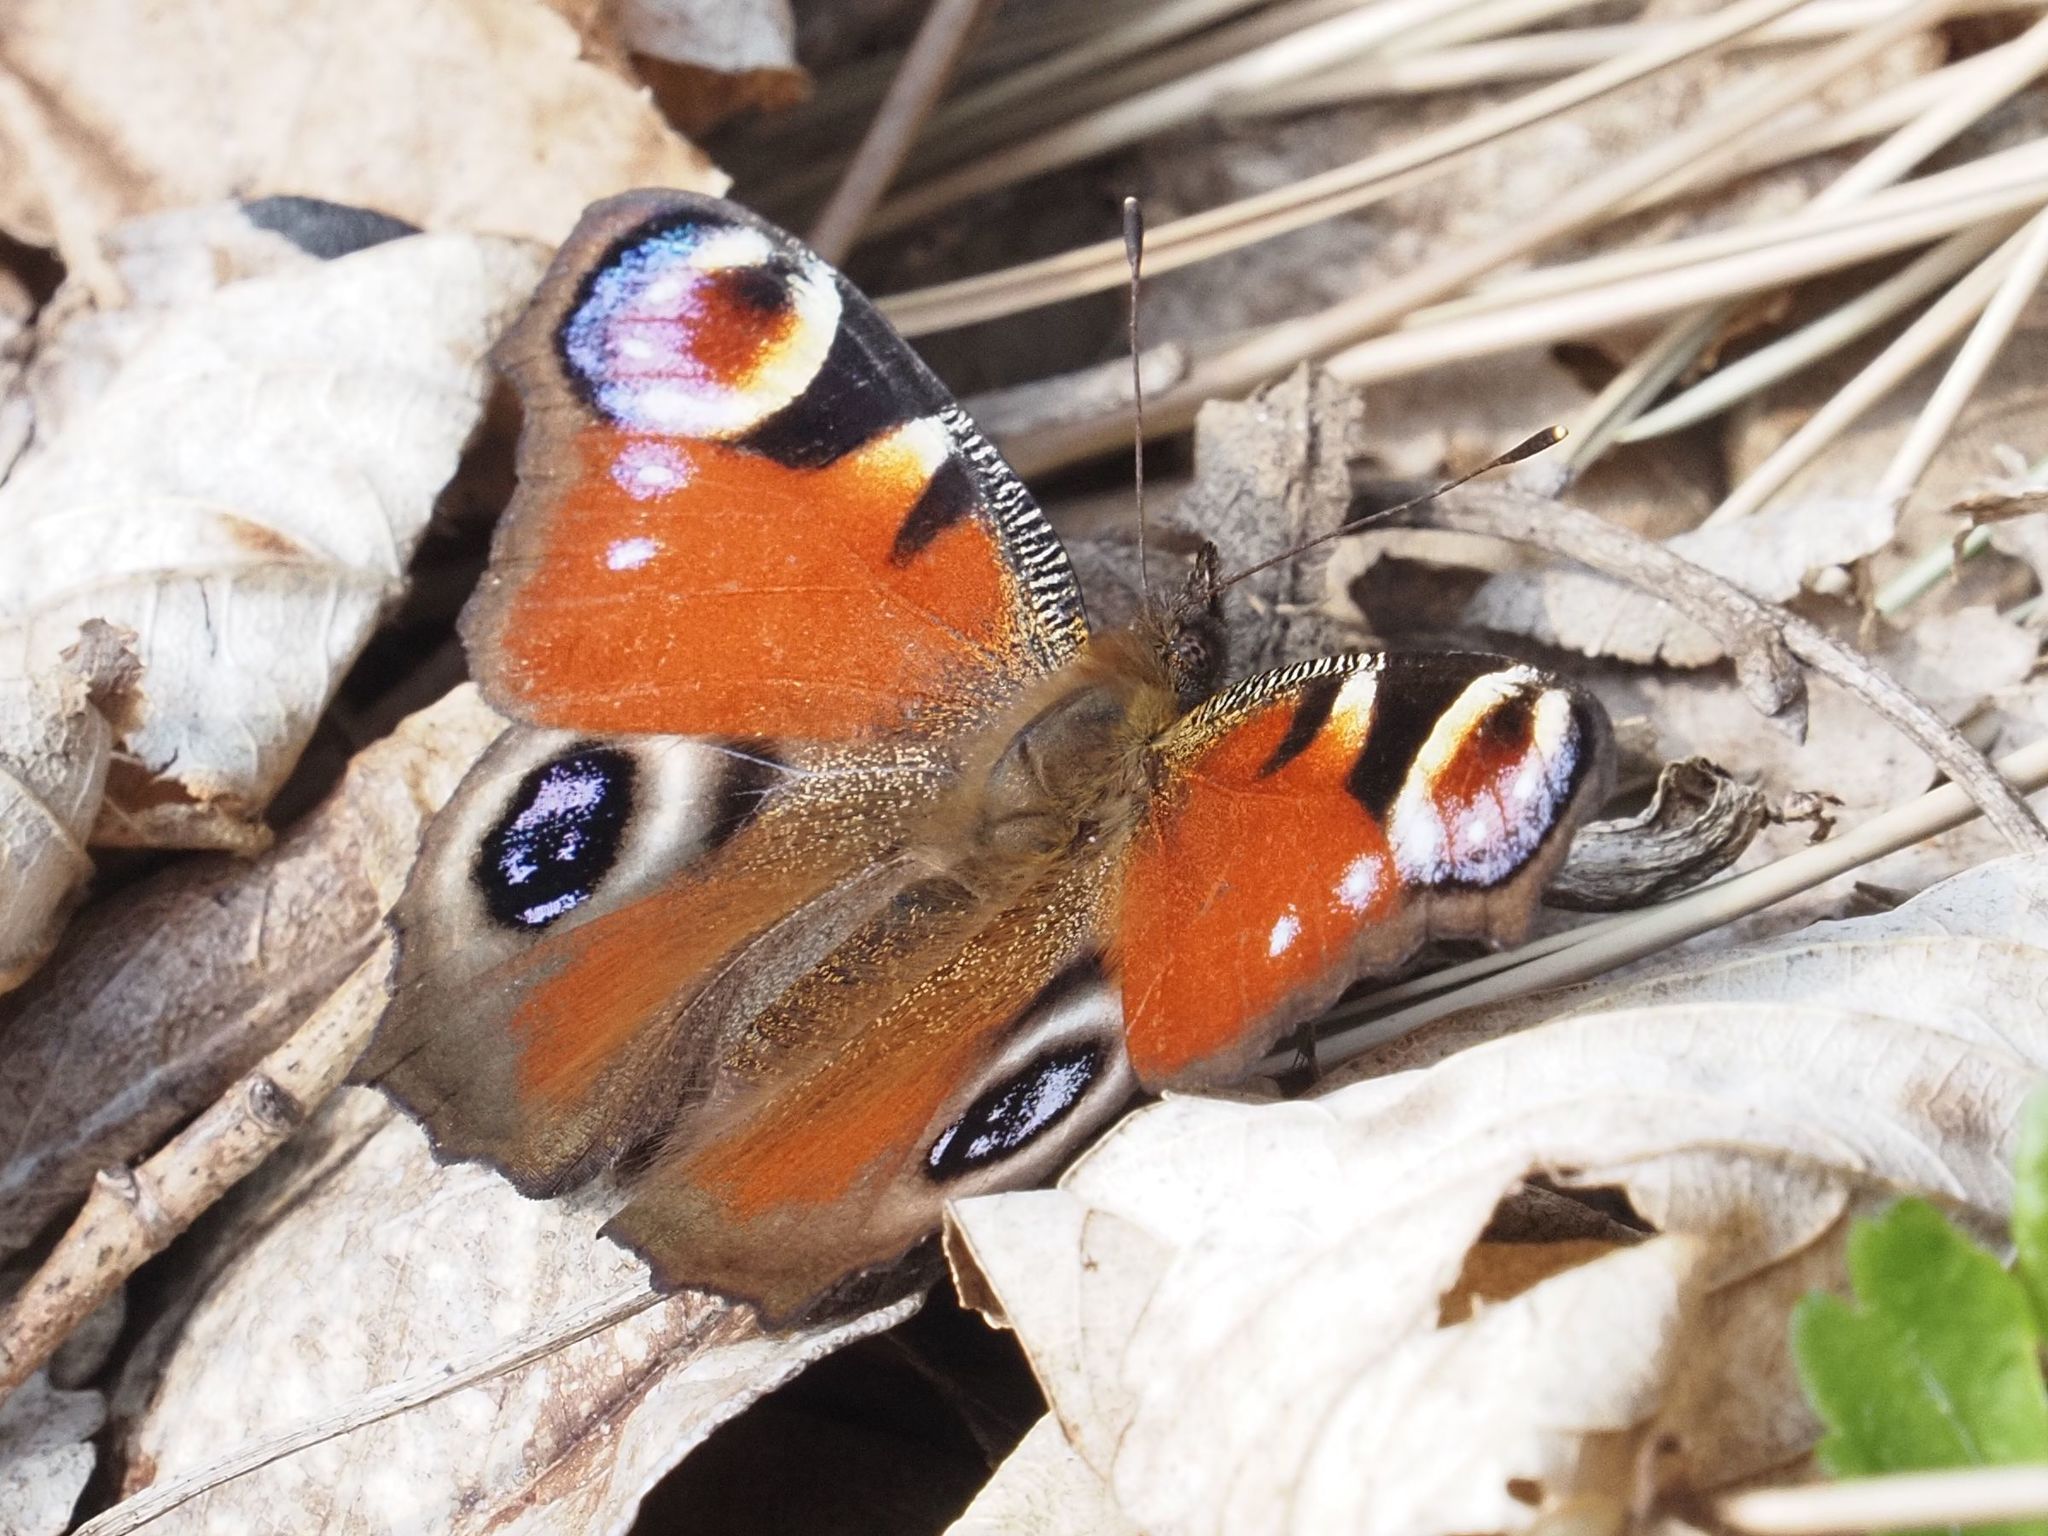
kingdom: Animalia
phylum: Arthropoda
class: Insecta
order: Lepidoptera
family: Nymphalidae
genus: Aglais
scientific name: Aglais io
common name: Peacock
